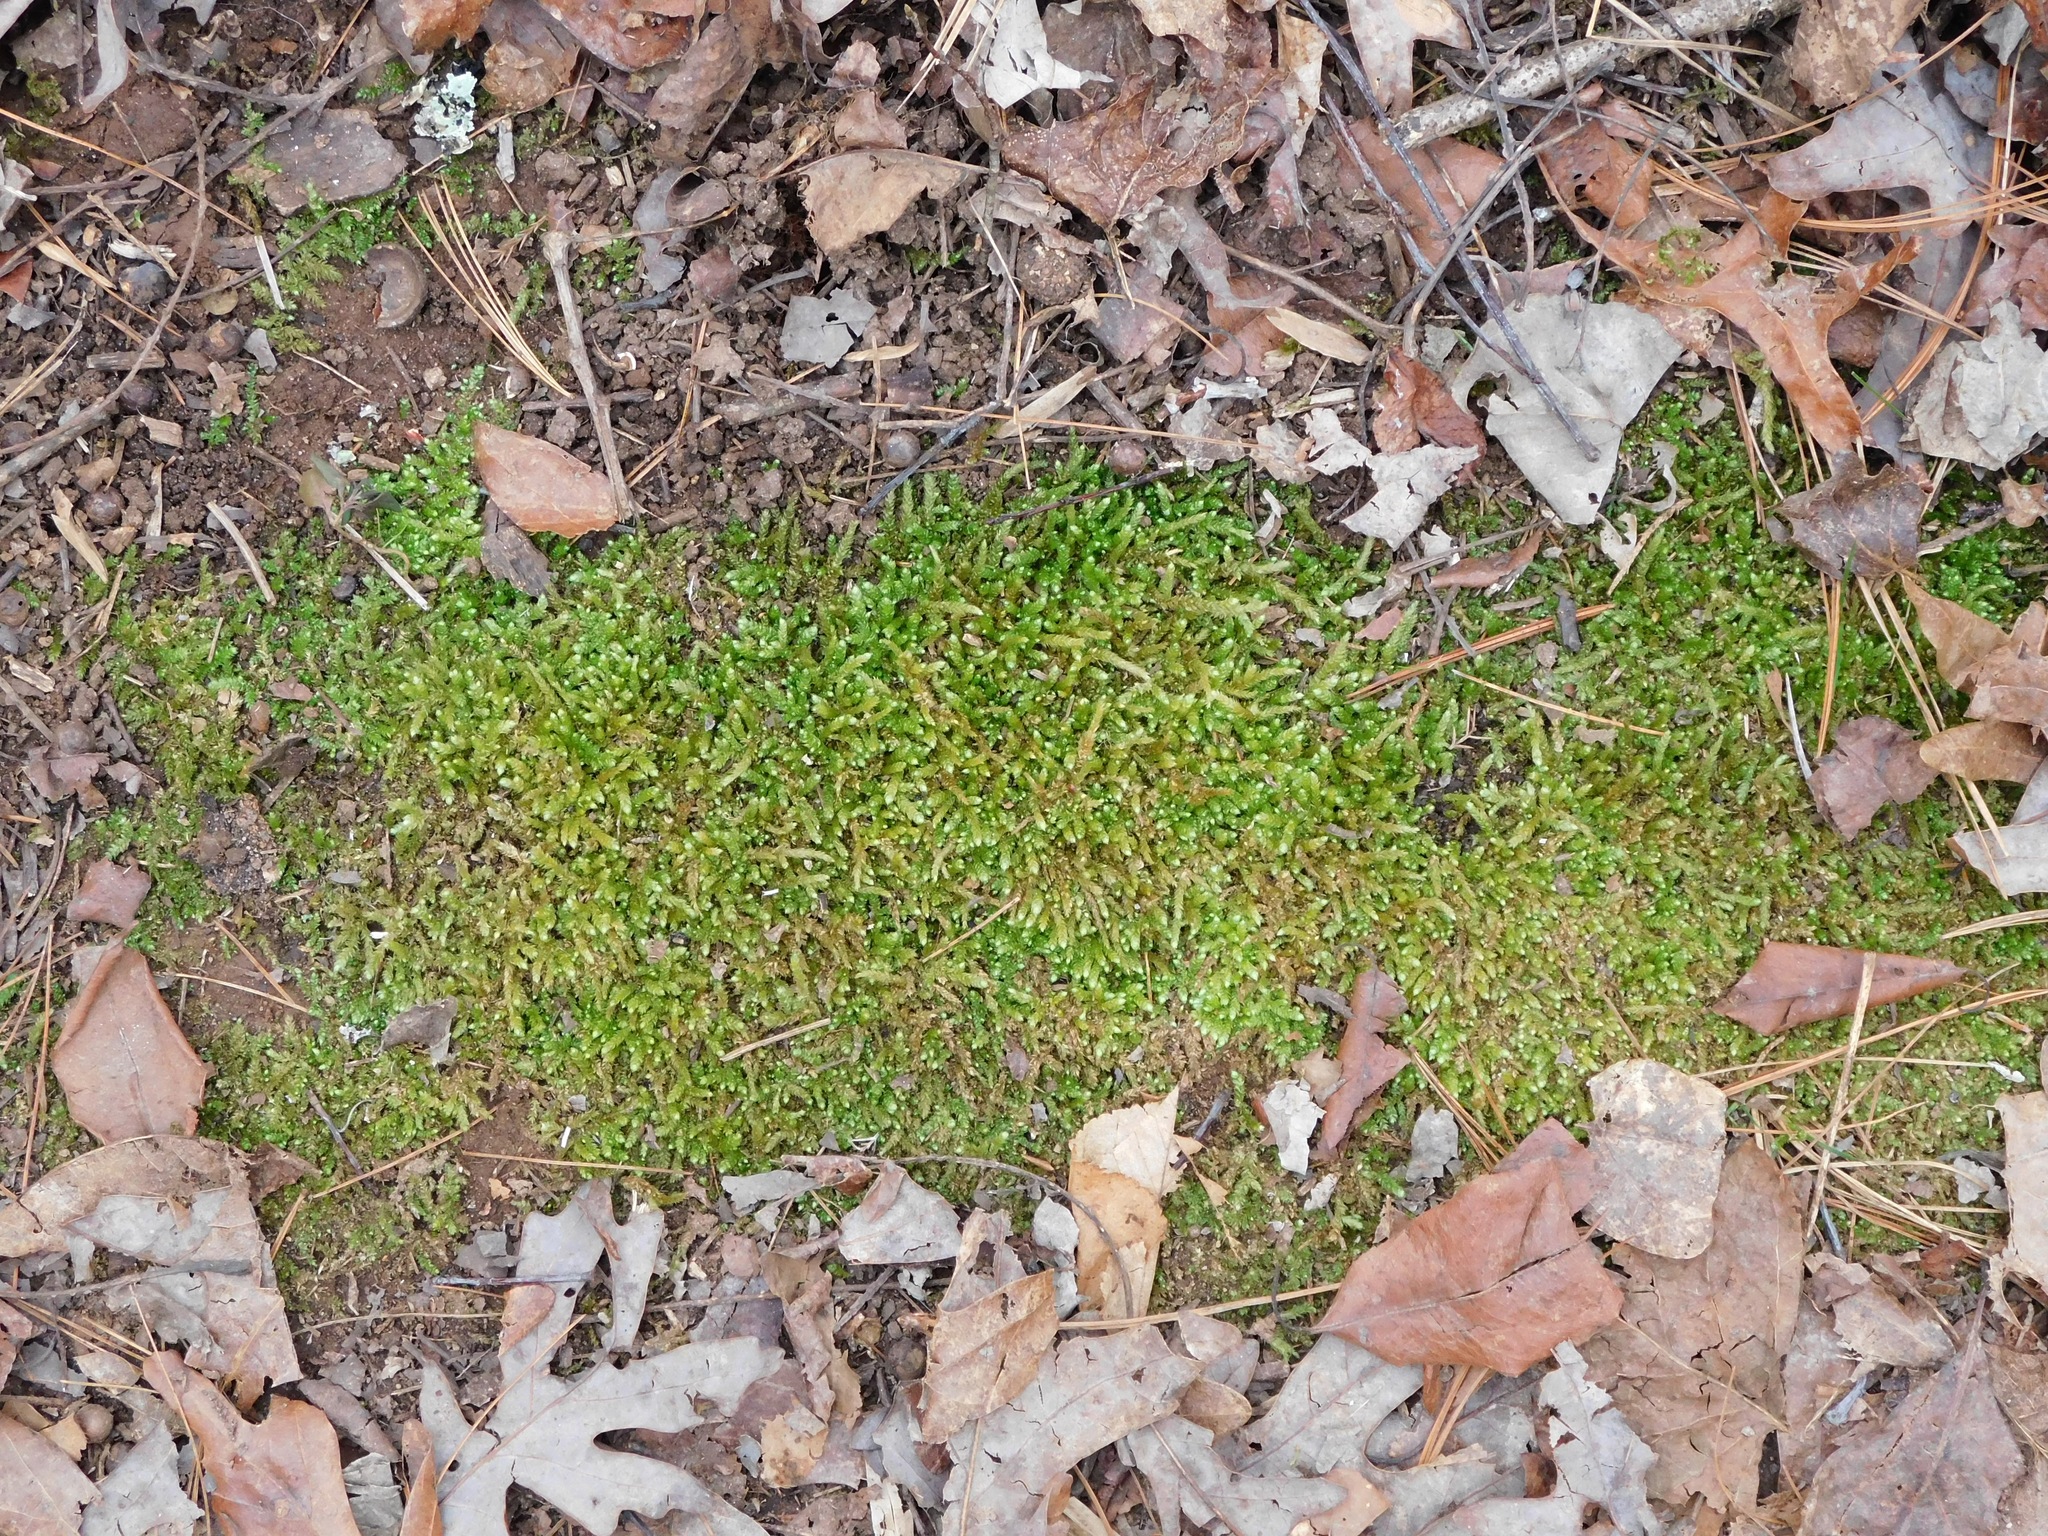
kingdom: Plantae
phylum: Bryophyta
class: Bryopsida
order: Hypnales
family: Brachytheciaceae
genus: Bryoandersonia
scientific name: Bryoandersonia illecebra
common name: Spoon-leaved moss
